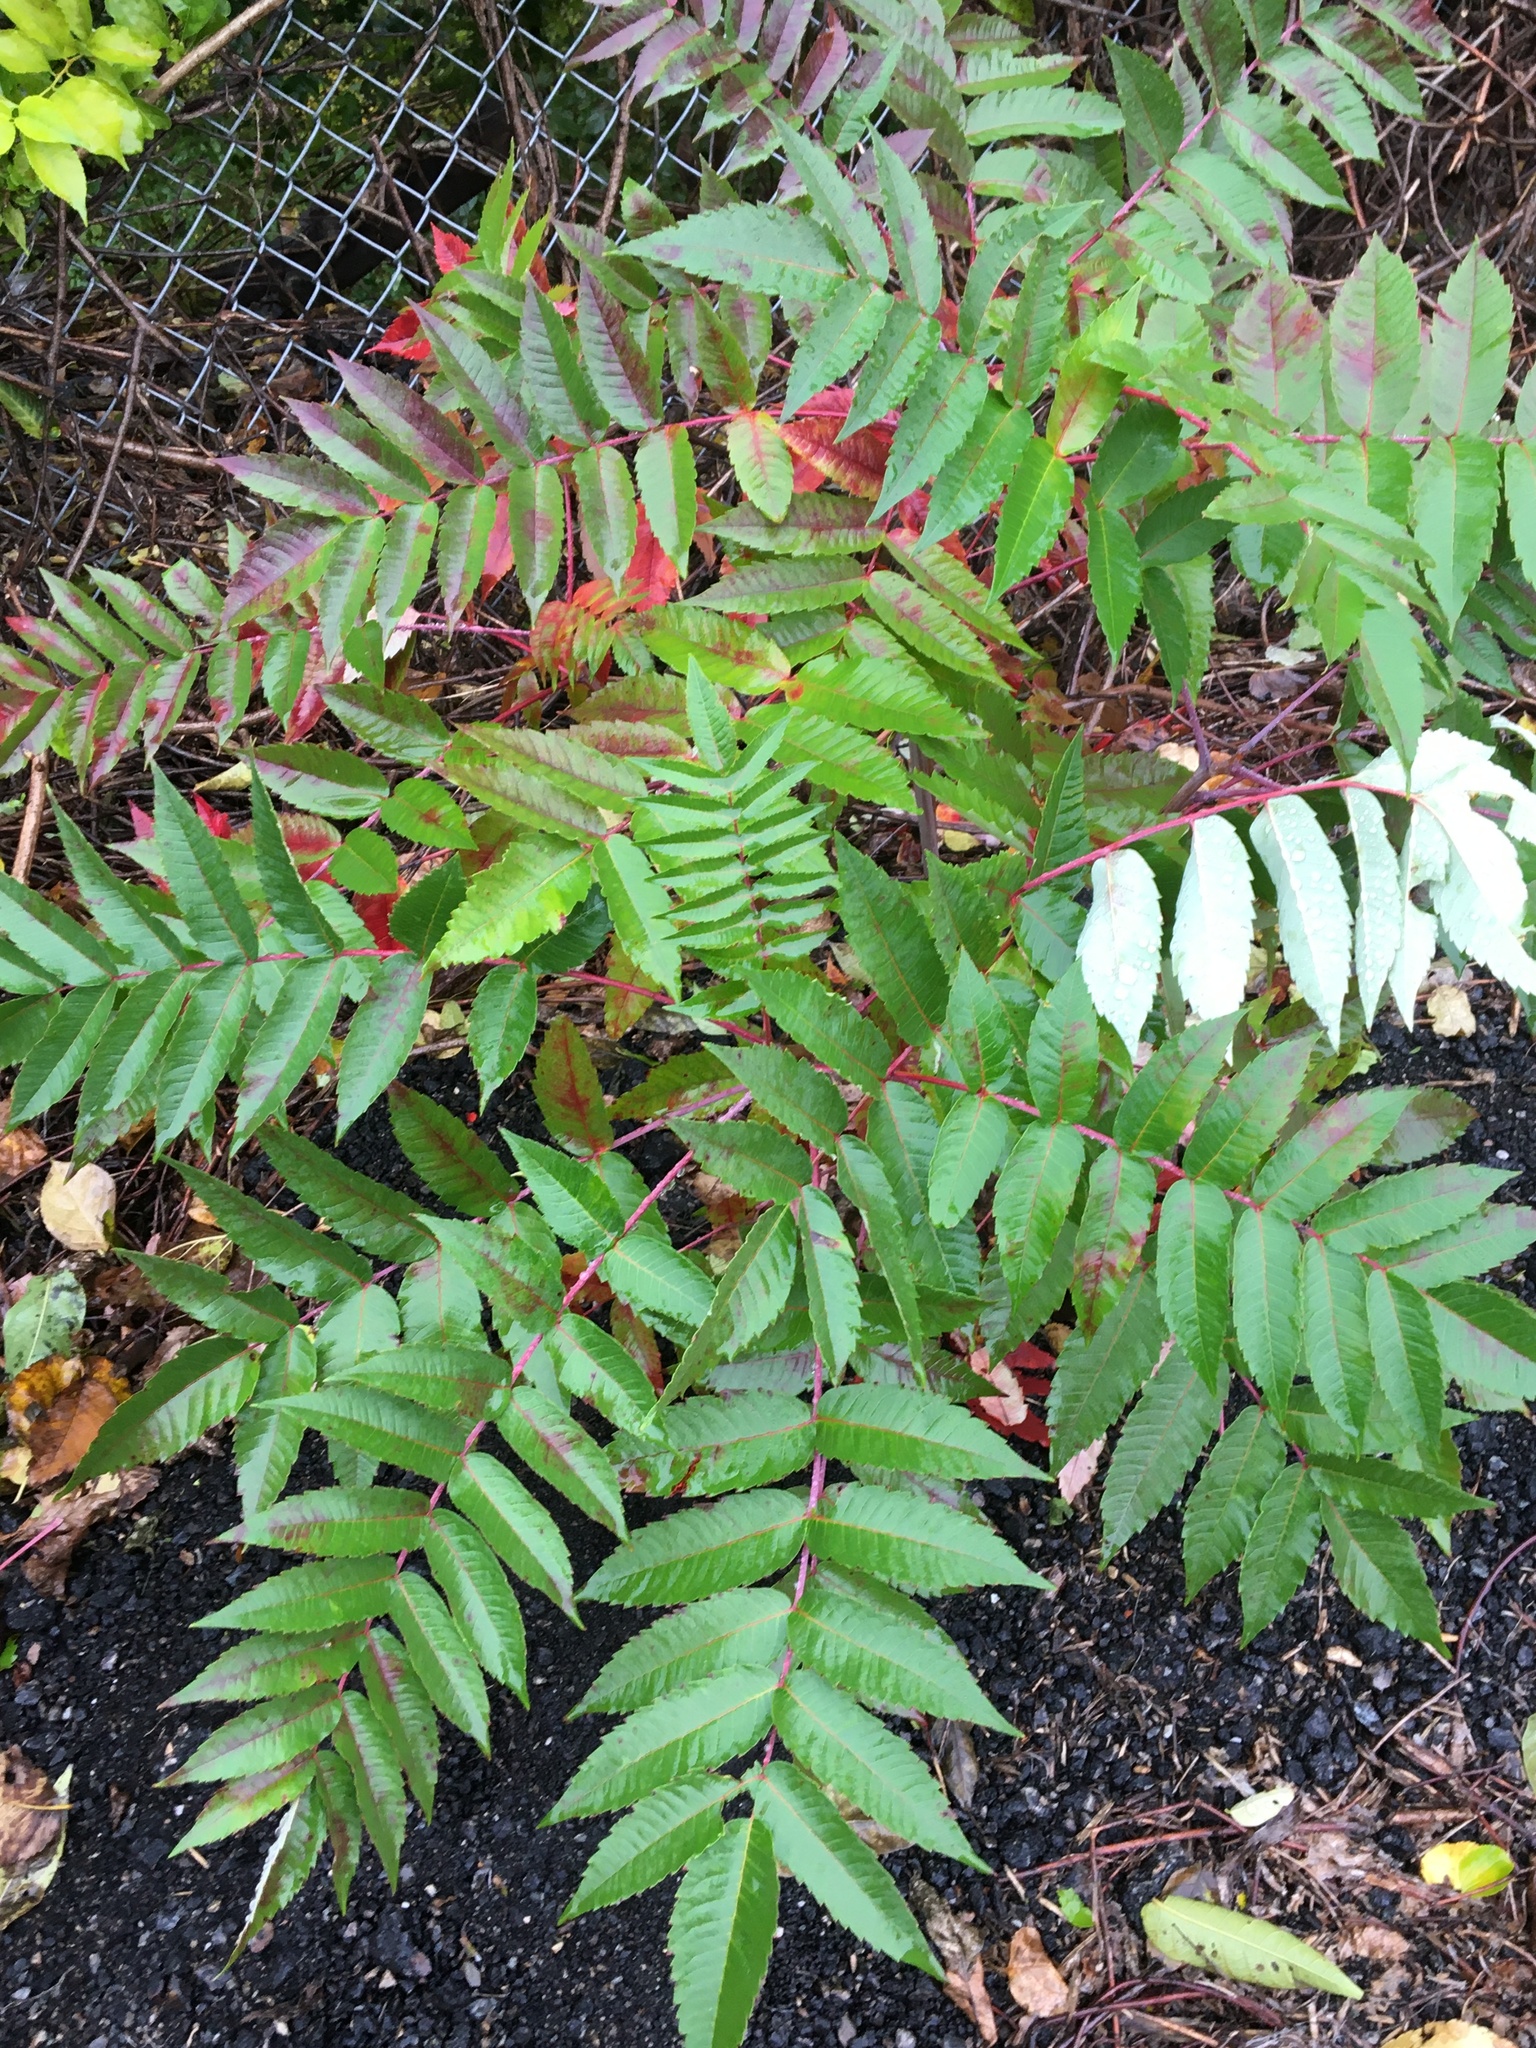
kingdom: Plantae
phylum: Tracheophyta
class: Magnoliopsida
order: Sapindales
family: Anacardiaceae
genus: Rhus
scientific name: Rhus glabra
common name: Scarlet sumac
